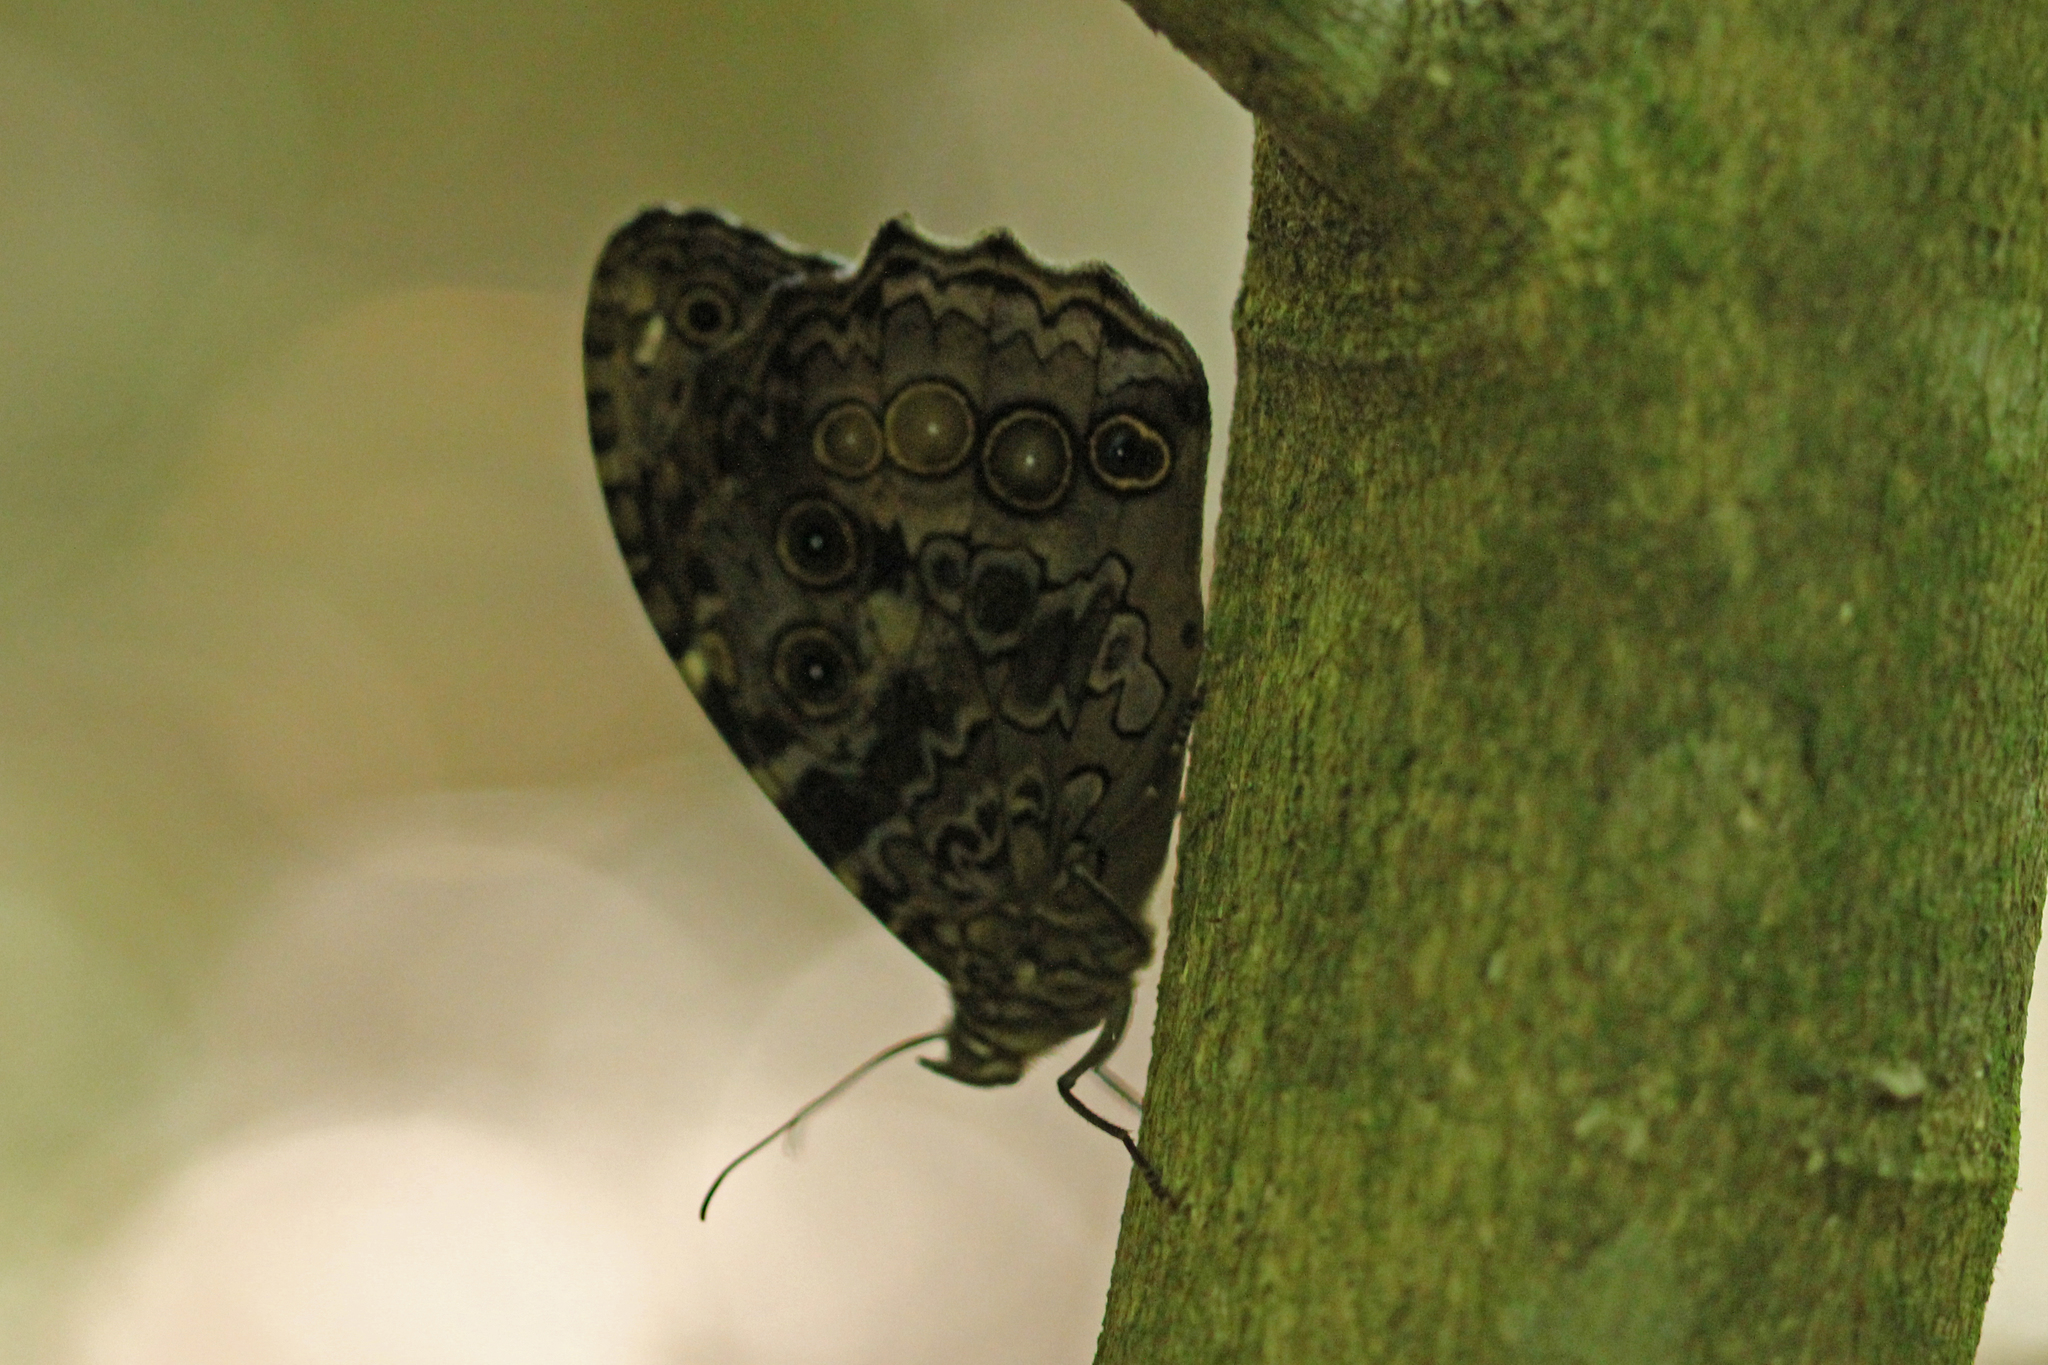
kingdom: Animalia
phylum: Arthropoda
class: Insecta
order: Lepidoptera
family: Nymphalidae
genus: Manataria
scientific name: Manataria maculata
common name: White-spotted satyr
